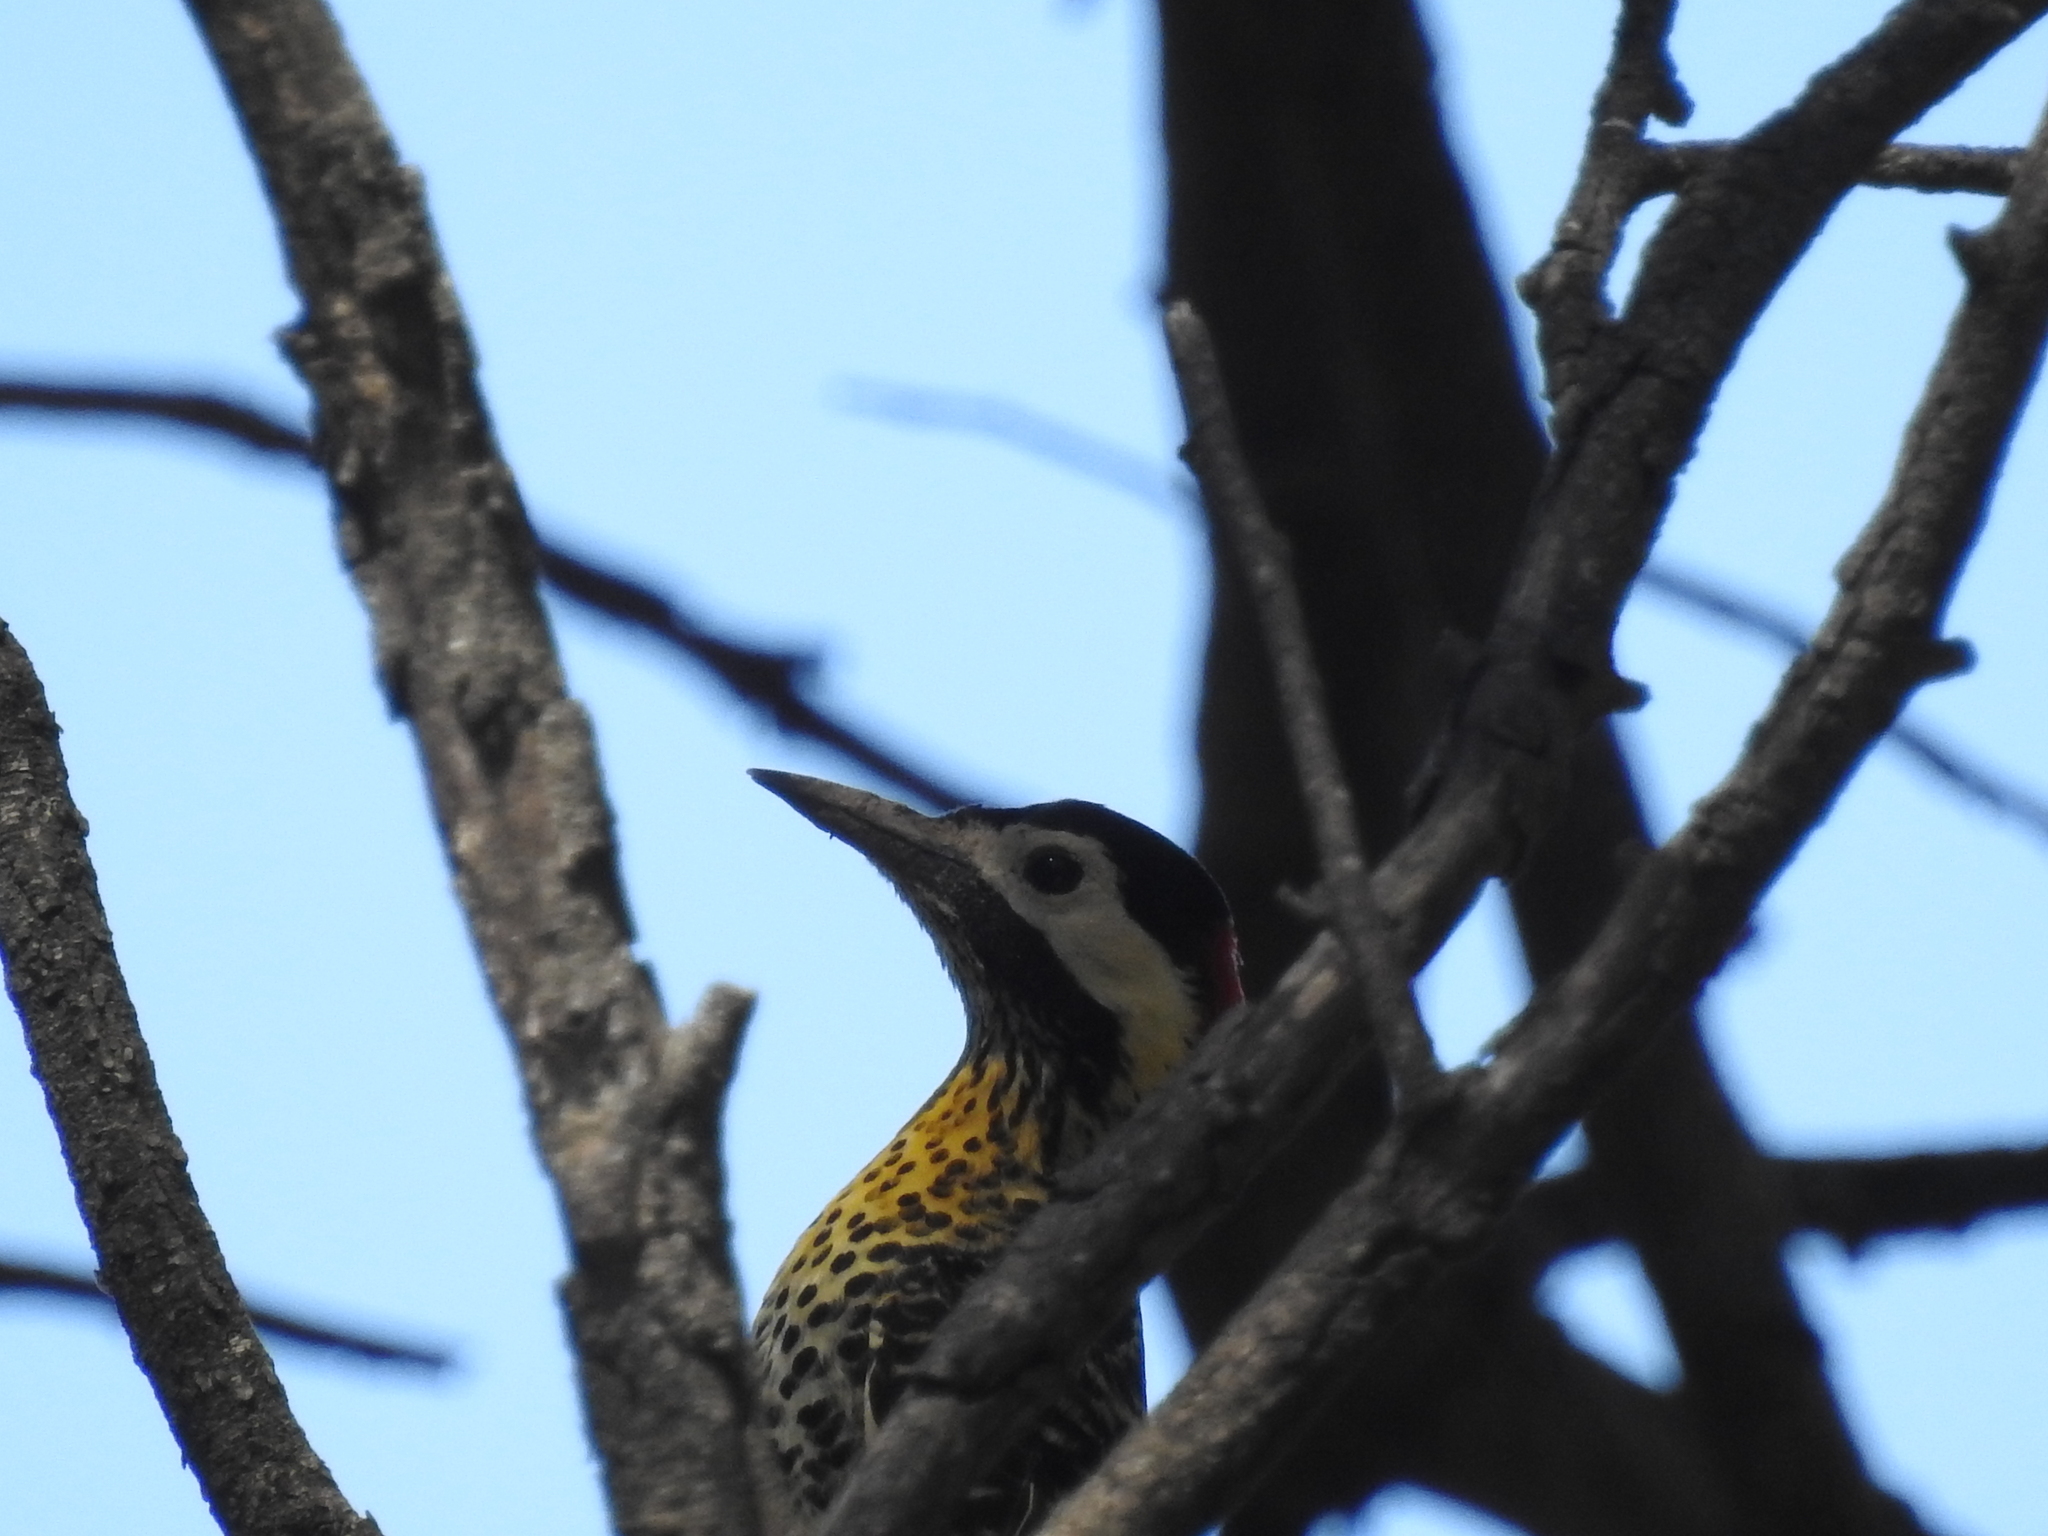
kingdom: Animalia
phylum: Chordata
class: Aves
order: Piciformes
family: Picidae
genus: Colaptes
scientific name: Colaptes melanochloros
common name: Green-barred woodpecker
